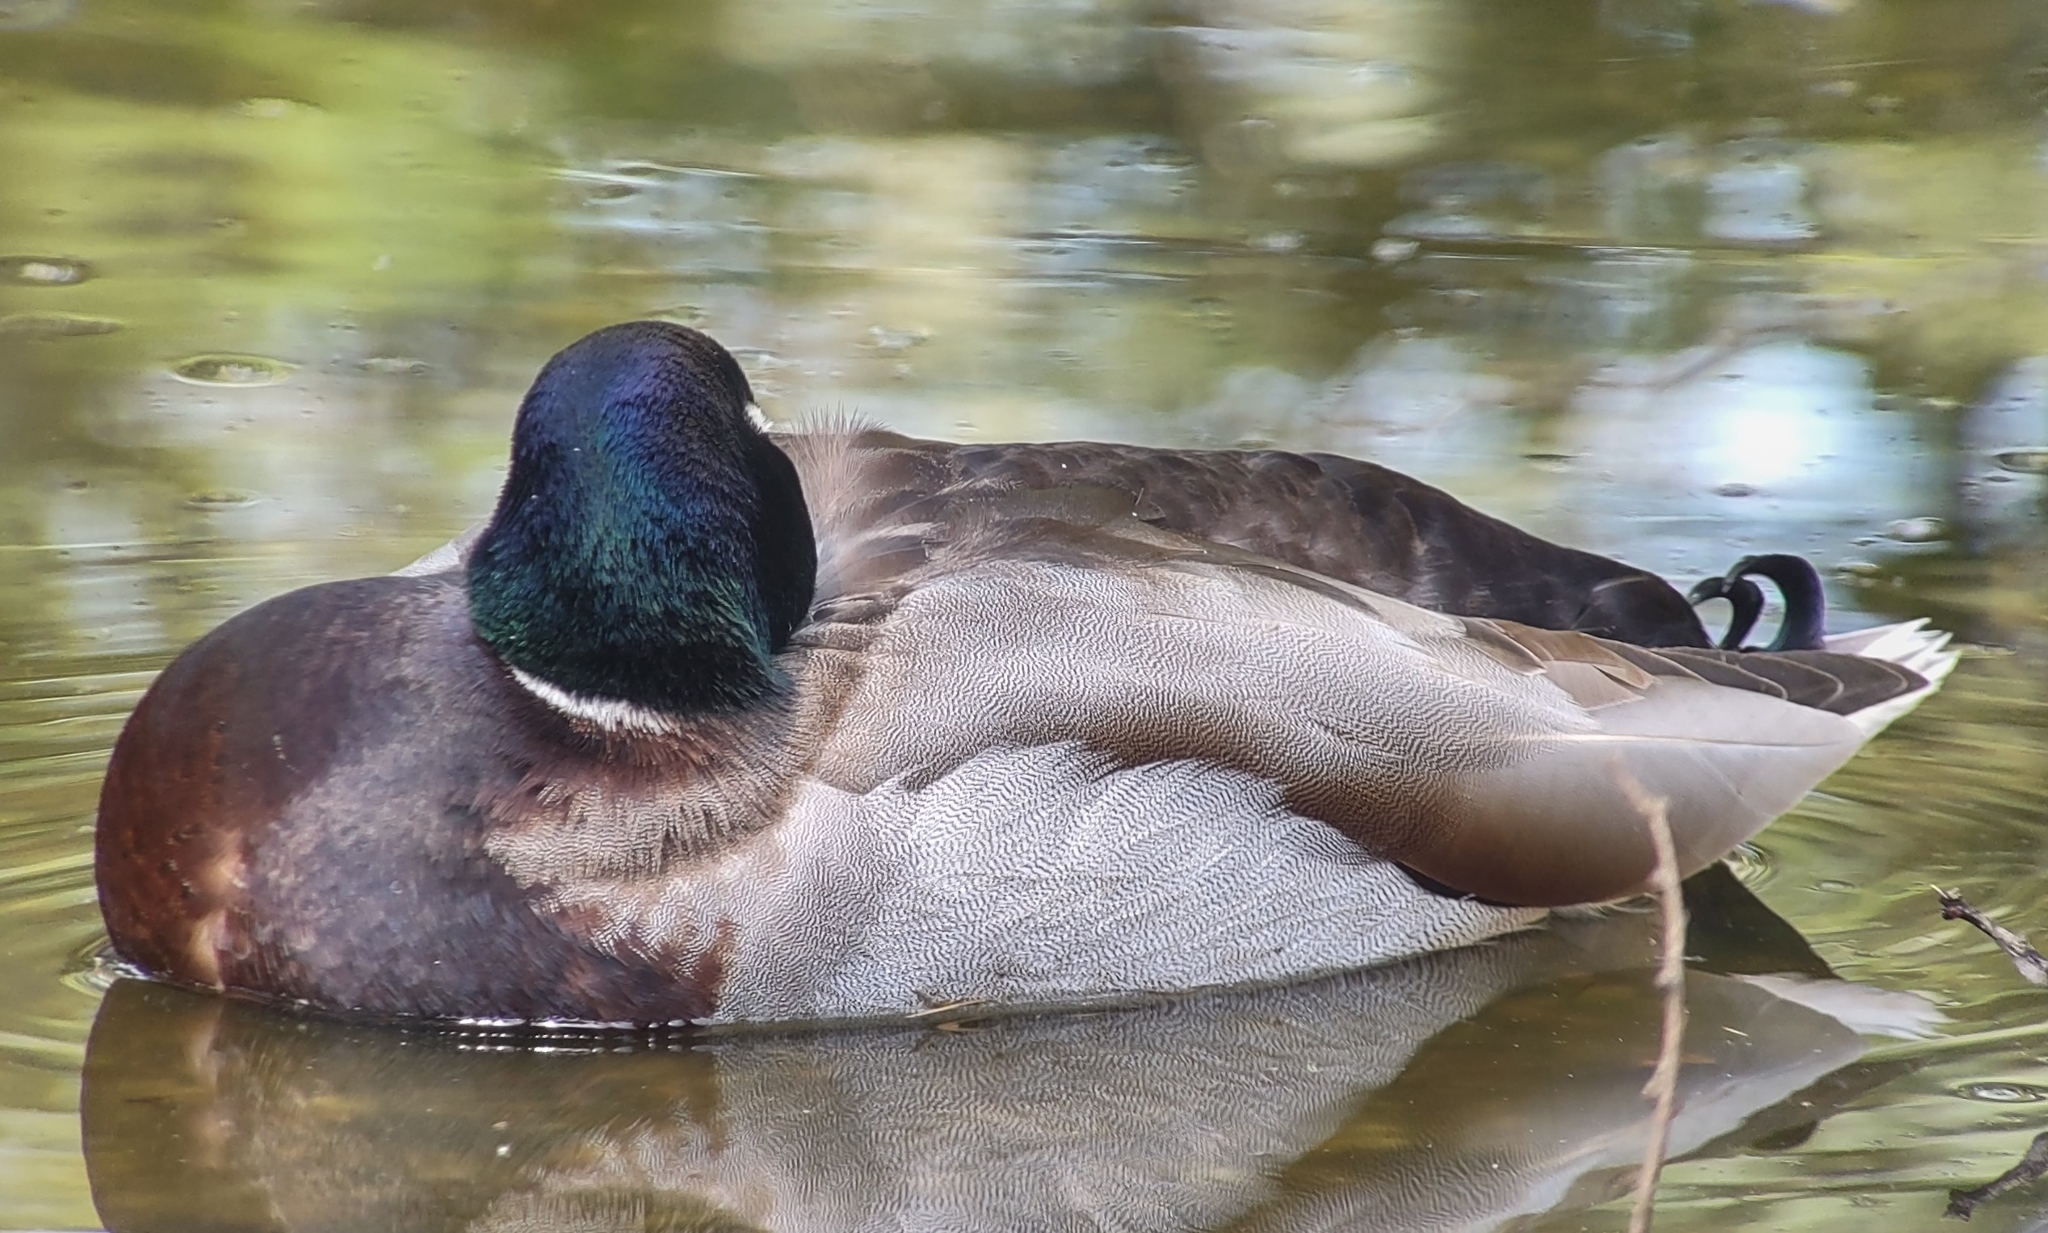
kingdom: Animalia
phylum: Chordata
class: Aves
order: Anseriformes
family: Anatidae
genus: Anas
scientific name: Anas platyrhynchos
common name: Mallard
